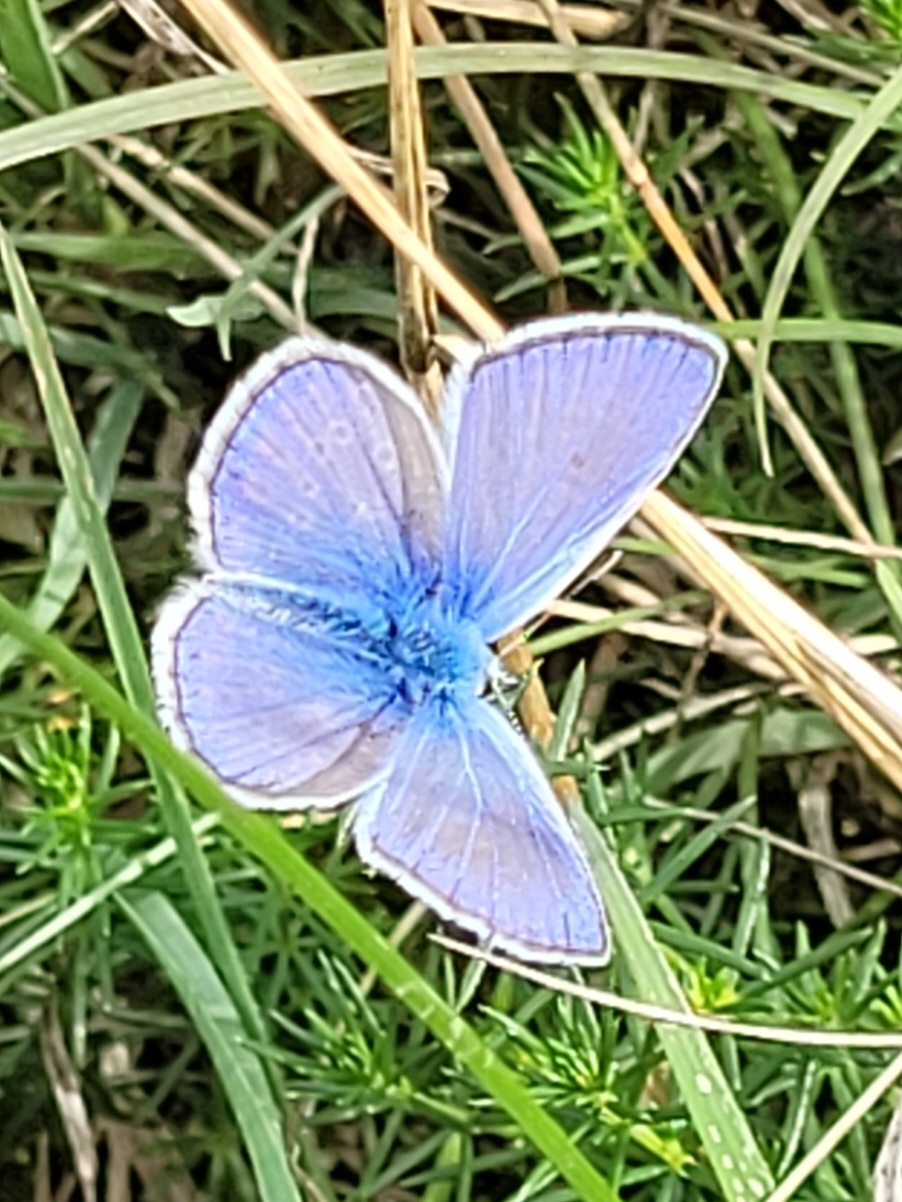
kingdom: Animalia
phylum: Arthropoda
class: Insecta
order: Lepidoptera
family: Lycaenidae
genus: Polyommatus
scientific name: Polyommatus icarus
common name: Common blue
